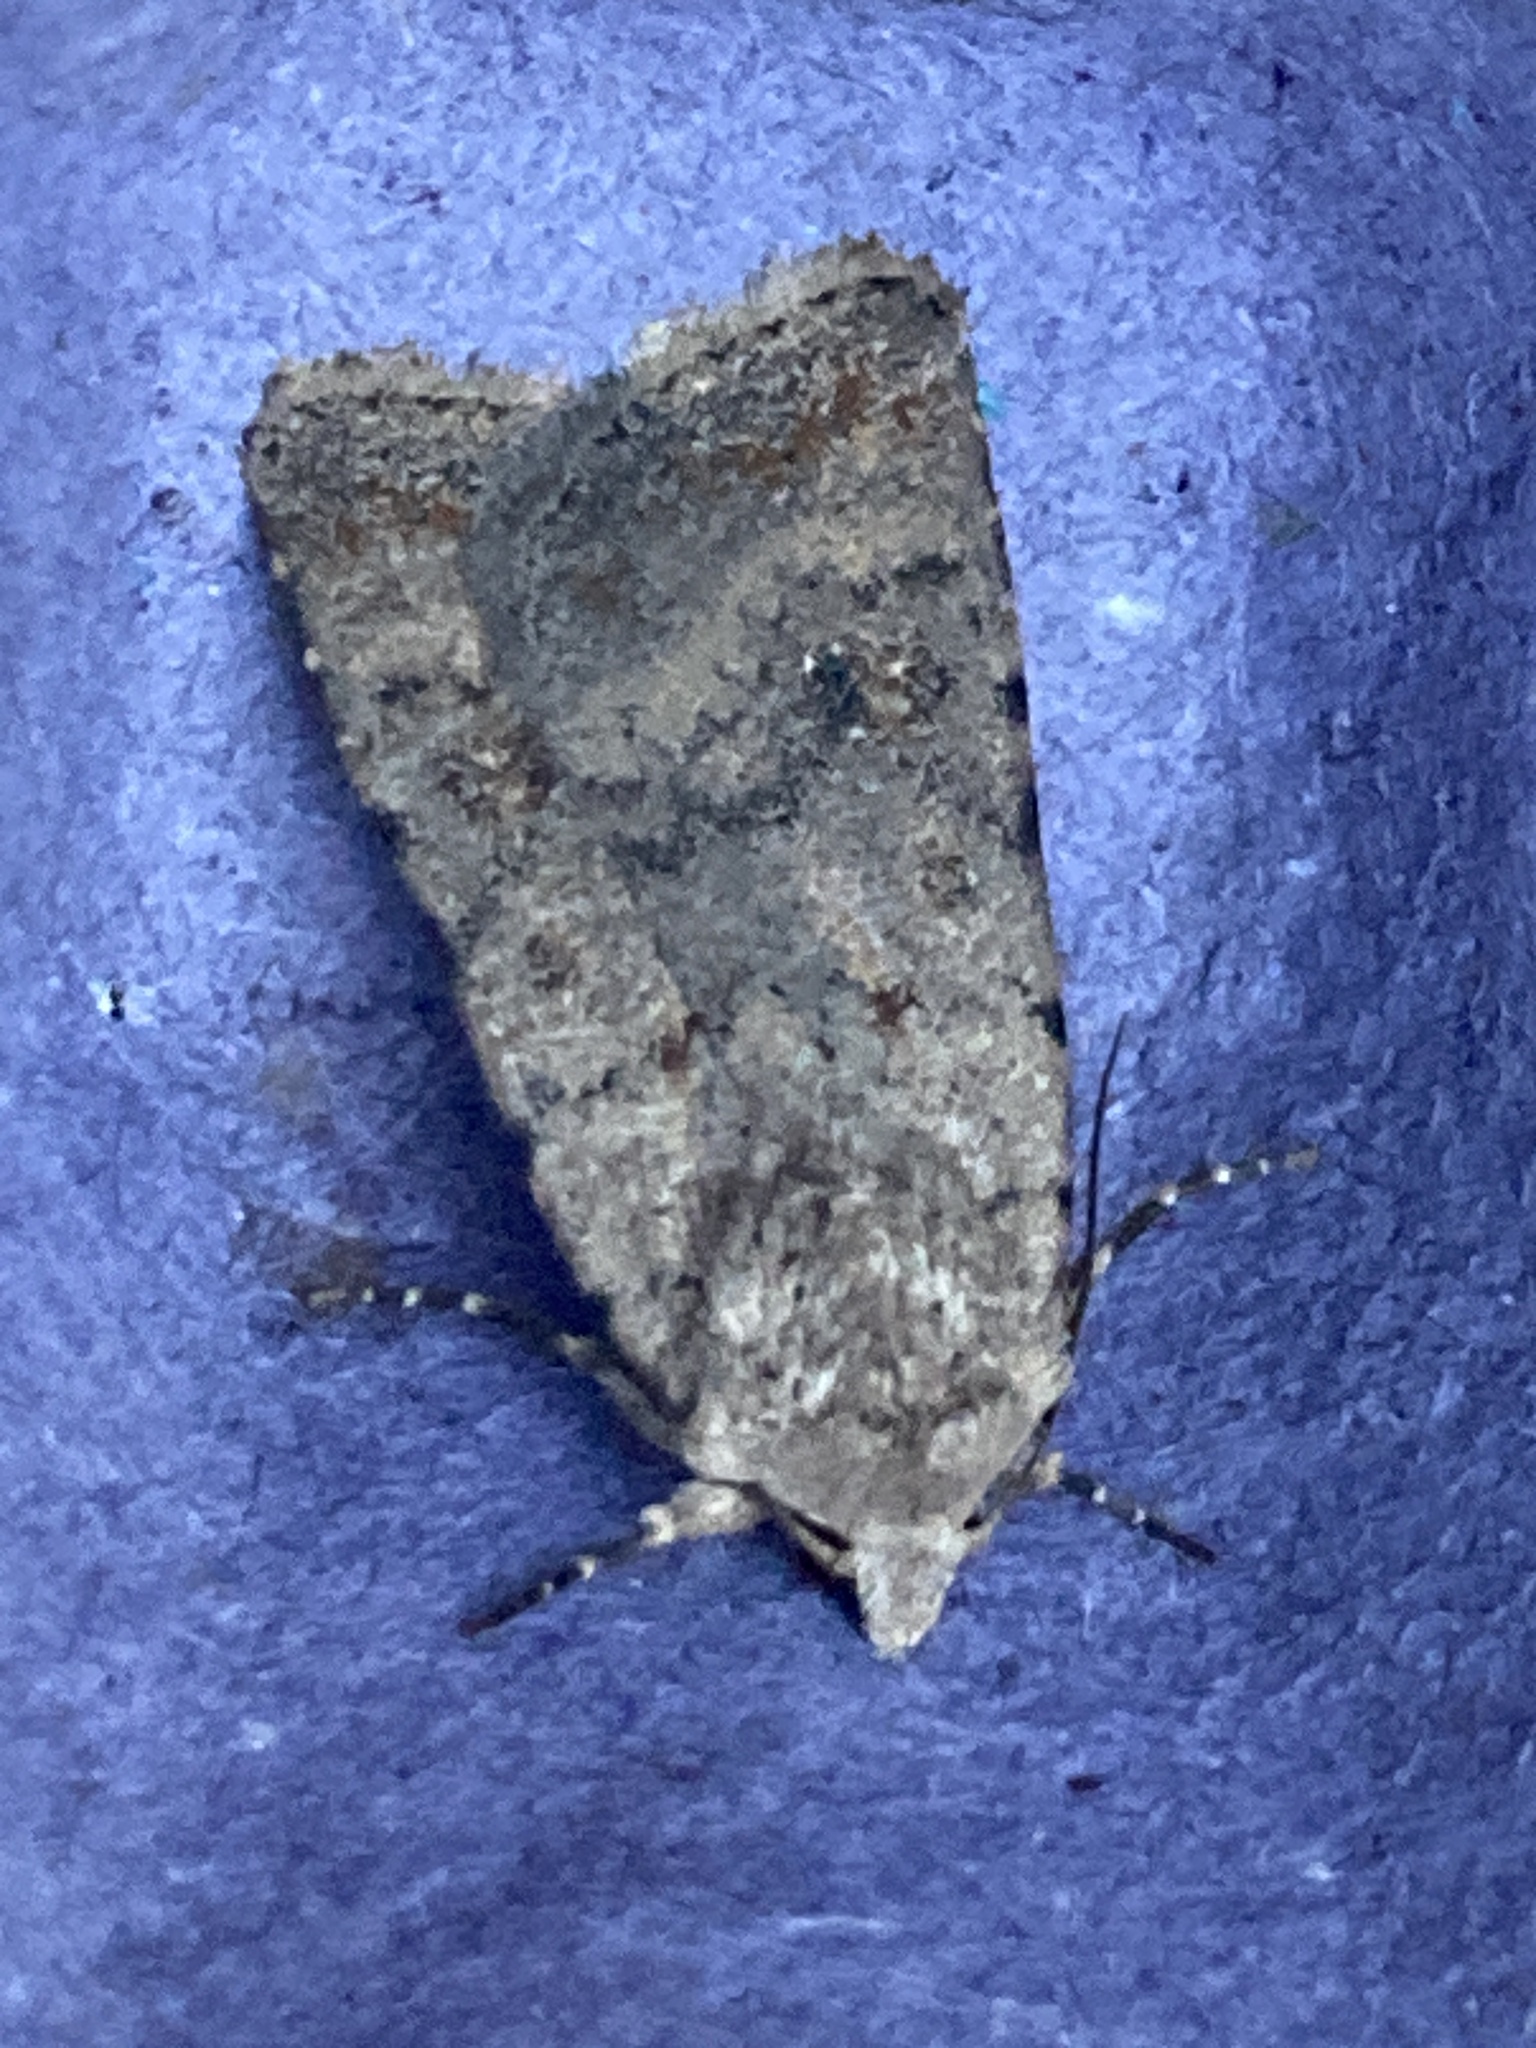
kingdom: Animalia
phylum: Arthropoda
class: Insecta
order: Lepidoptera
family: Noctuidae
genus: Caradrina
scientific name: Caradrina clavipalpis
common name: Pale mottled willow
